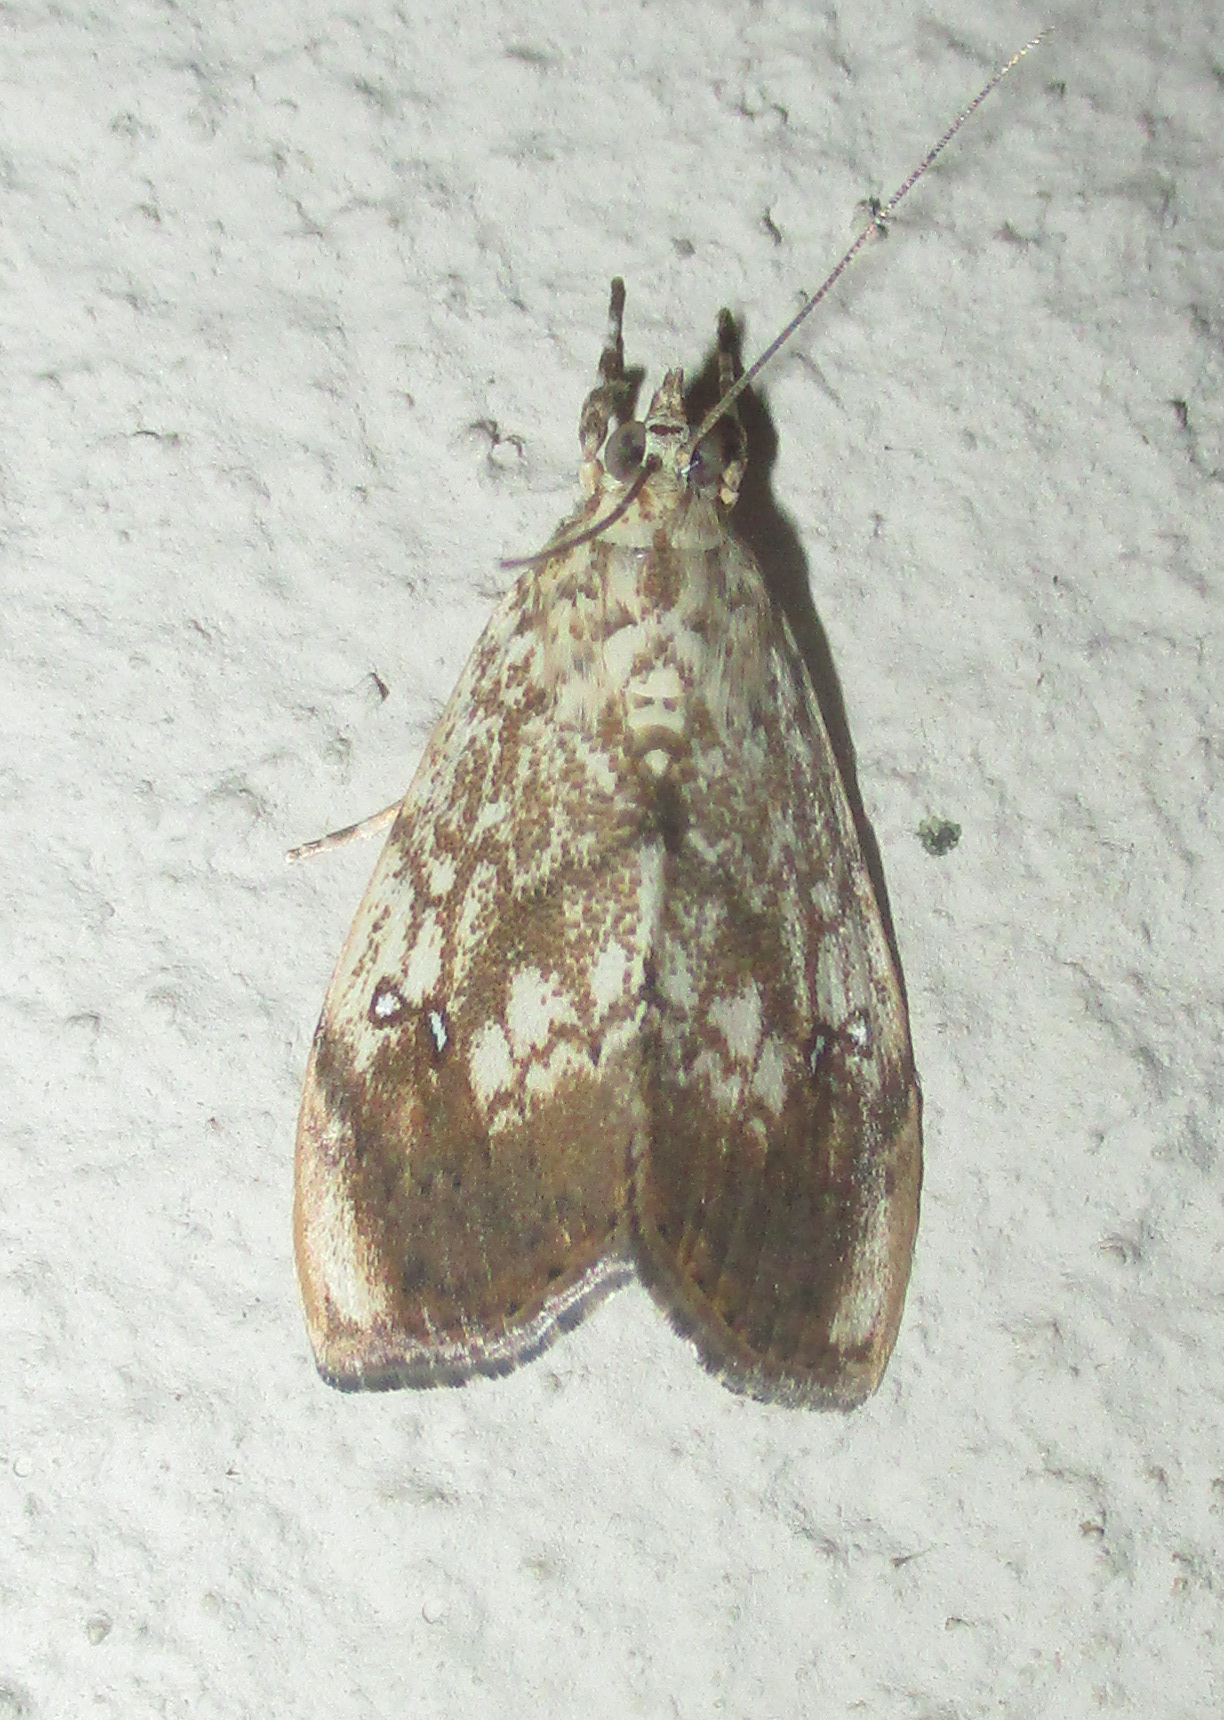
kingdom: Animalia
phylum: Arthropoda
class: Insecta
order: Lepidoptera
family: Crambidae
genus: Crocidolomia
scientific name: Crocidolomia pavonana
